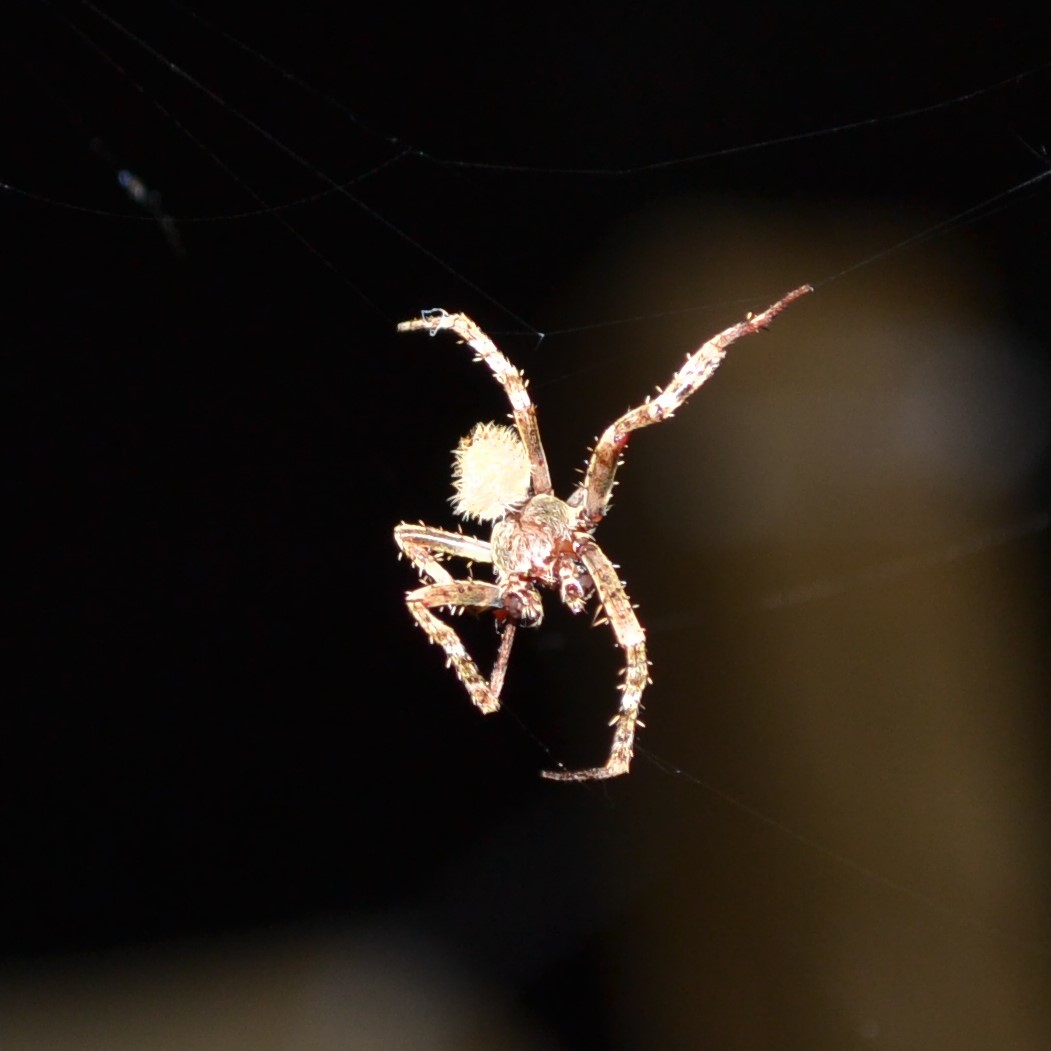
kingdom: Animalia
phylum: Arthropoda
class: Arachnida
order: Araneae
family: Araneidae
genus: Eriophora
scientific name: Eriophora ravilla
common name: Orb weavers
